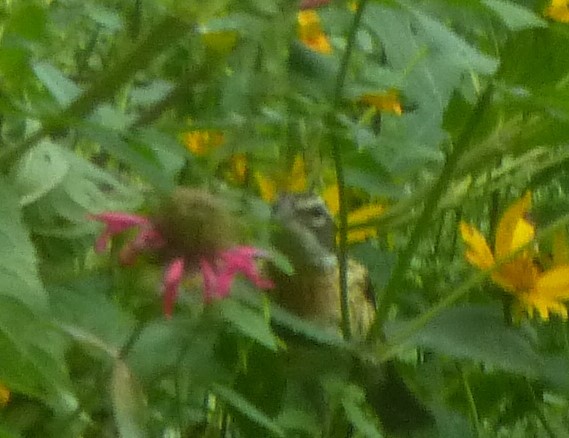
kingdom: Animalia
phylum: Chordata
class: Aves
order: Passeriformes
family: Cardinalidae
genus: Pheucticus
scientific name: Pheucticus ludovicianus
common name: Rose-breasted grosbeak
